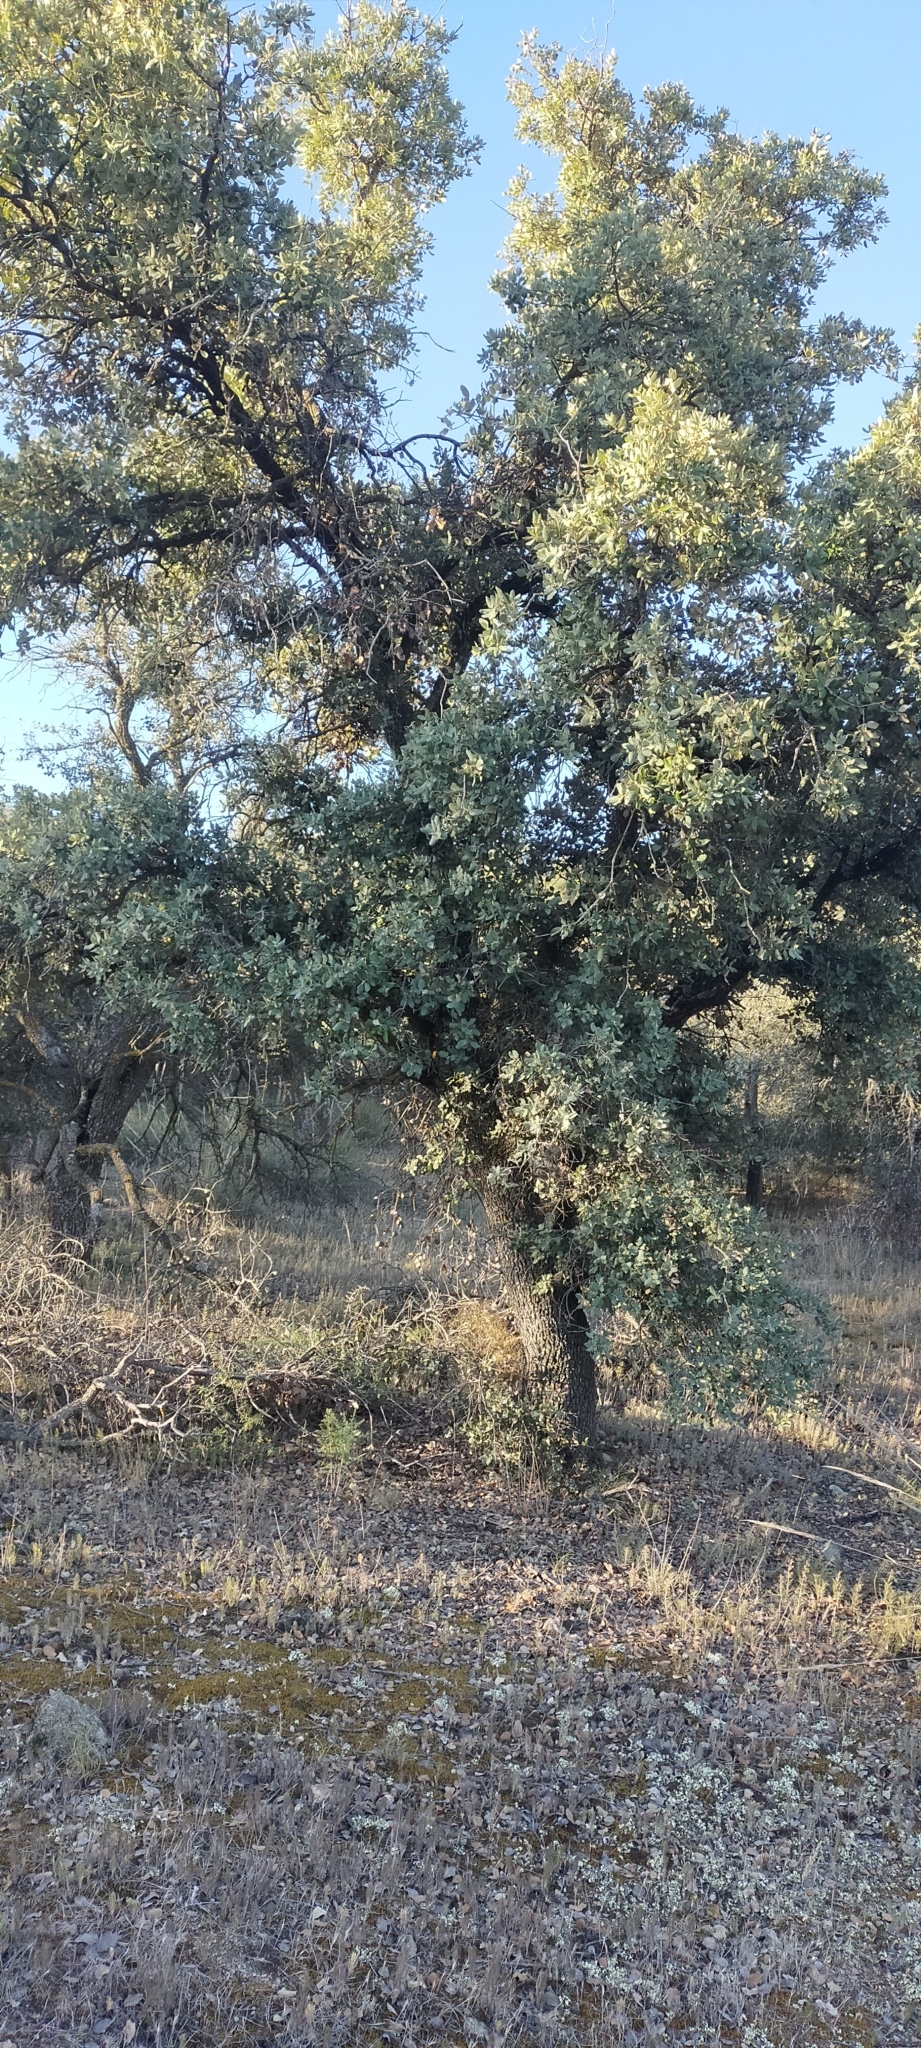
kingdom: Plantae
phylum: Tracheophyta
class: Magnoliopsida
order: Fagales
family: Fagaceae
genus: Quercus
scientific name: Quercus rotundifolia
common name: Holm oak
